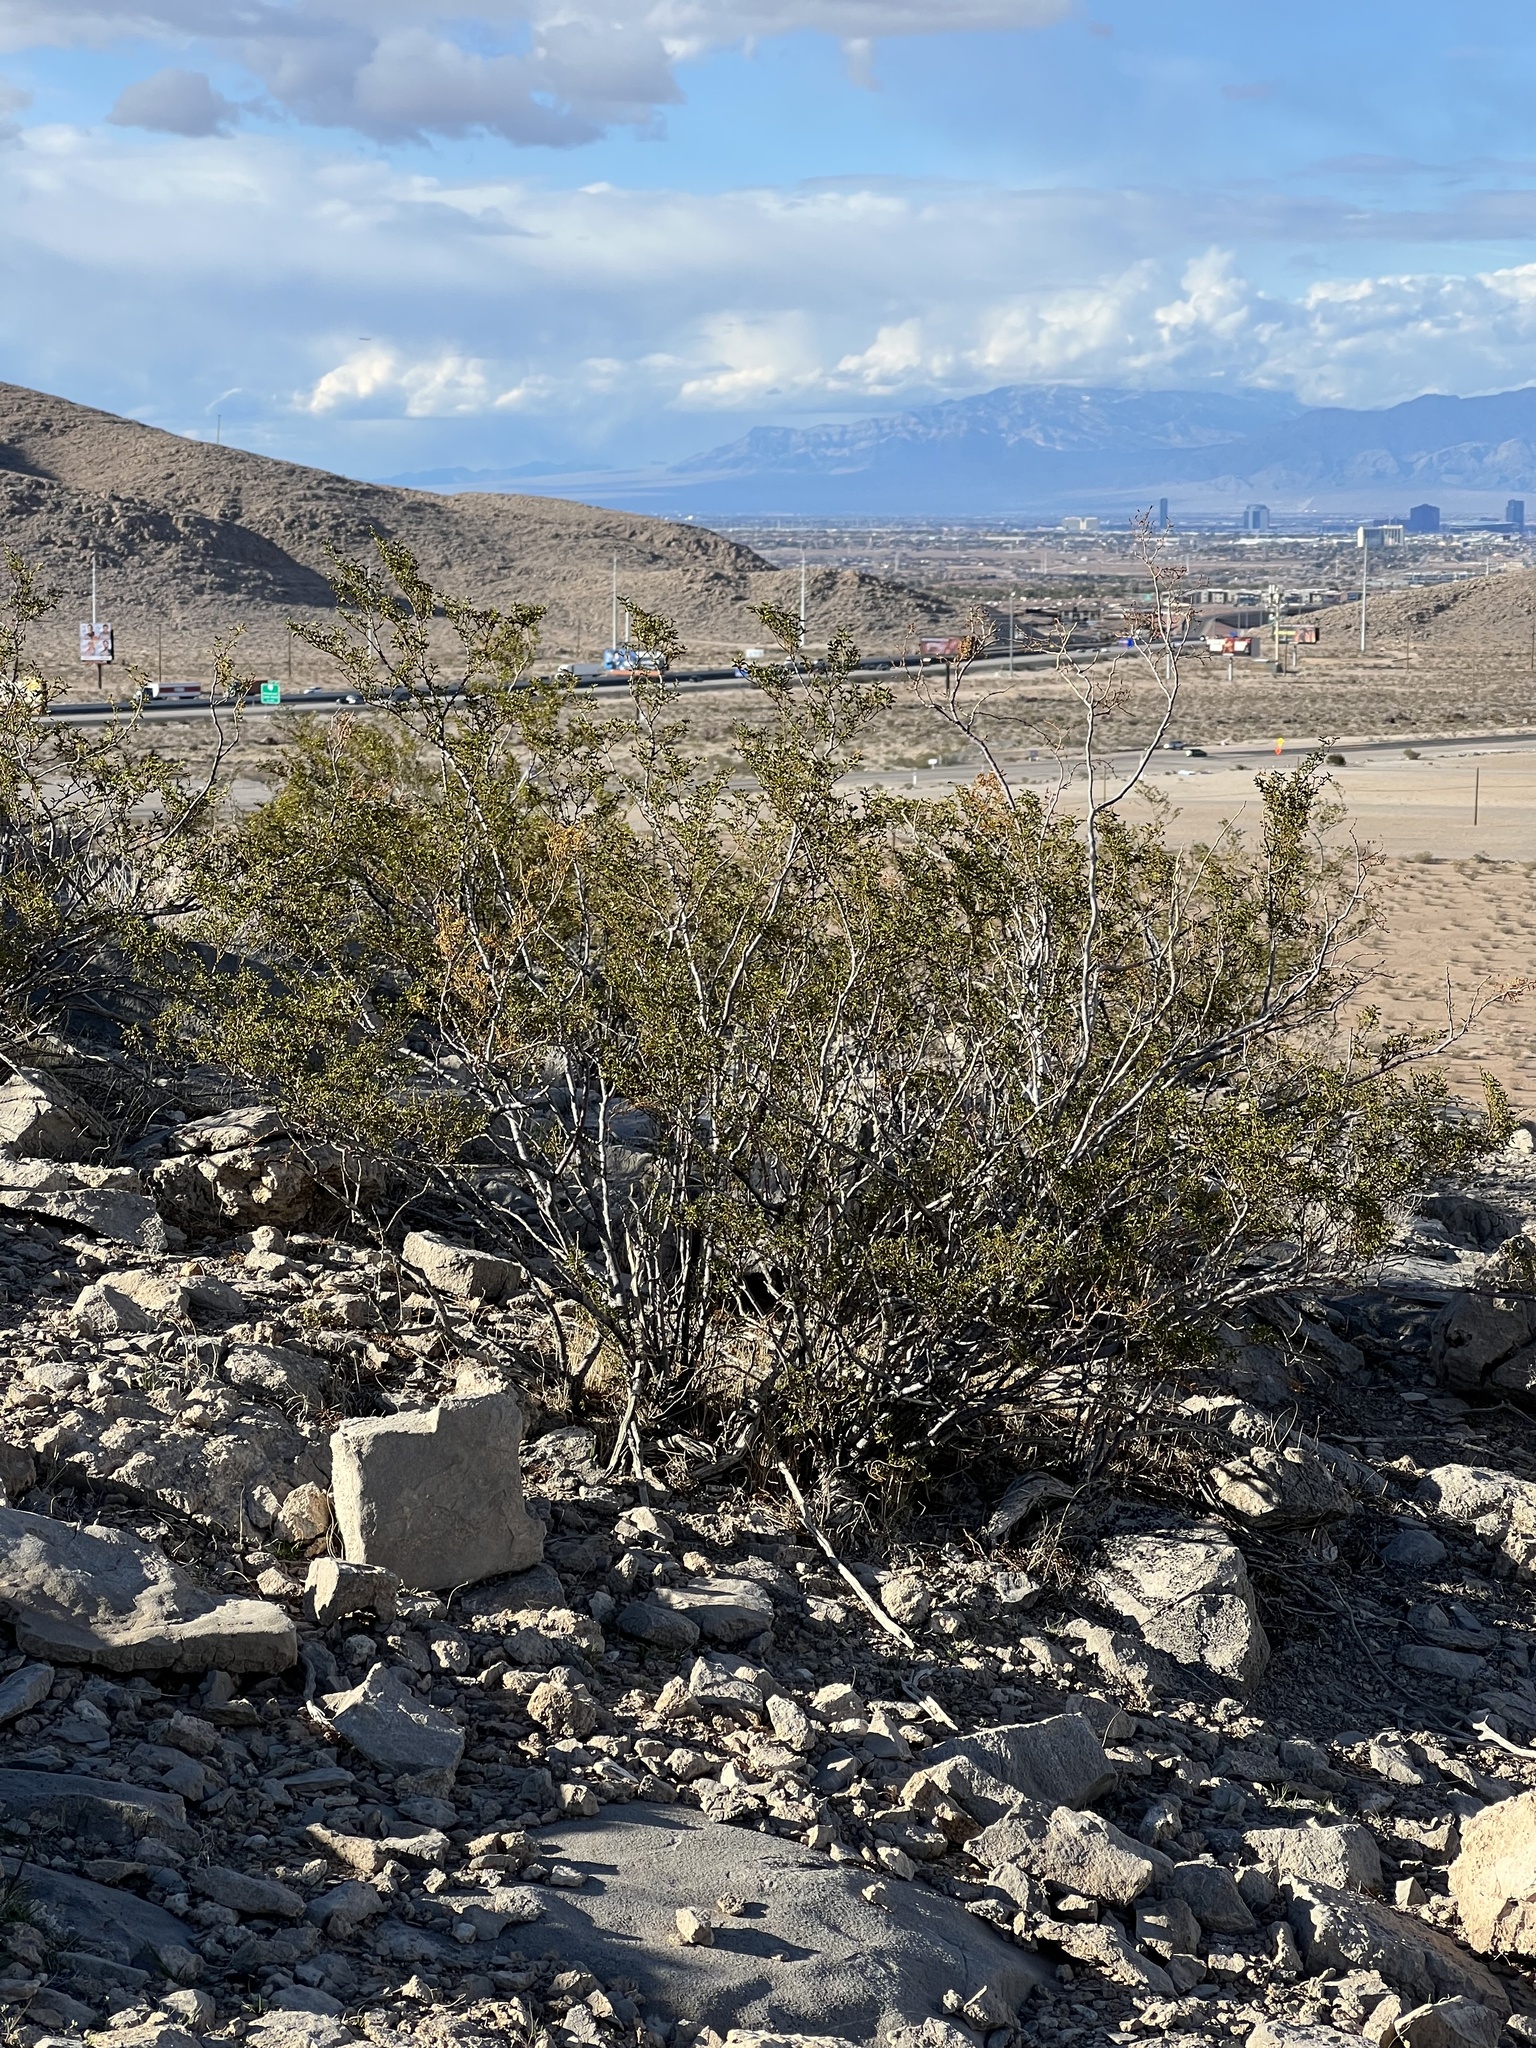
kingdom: Plantae
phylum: Tracheophyta
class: Magnoliopsida
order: Zygophyllales
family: Zygophyllaceae
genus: Larrea
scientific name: Larrea tridentata
